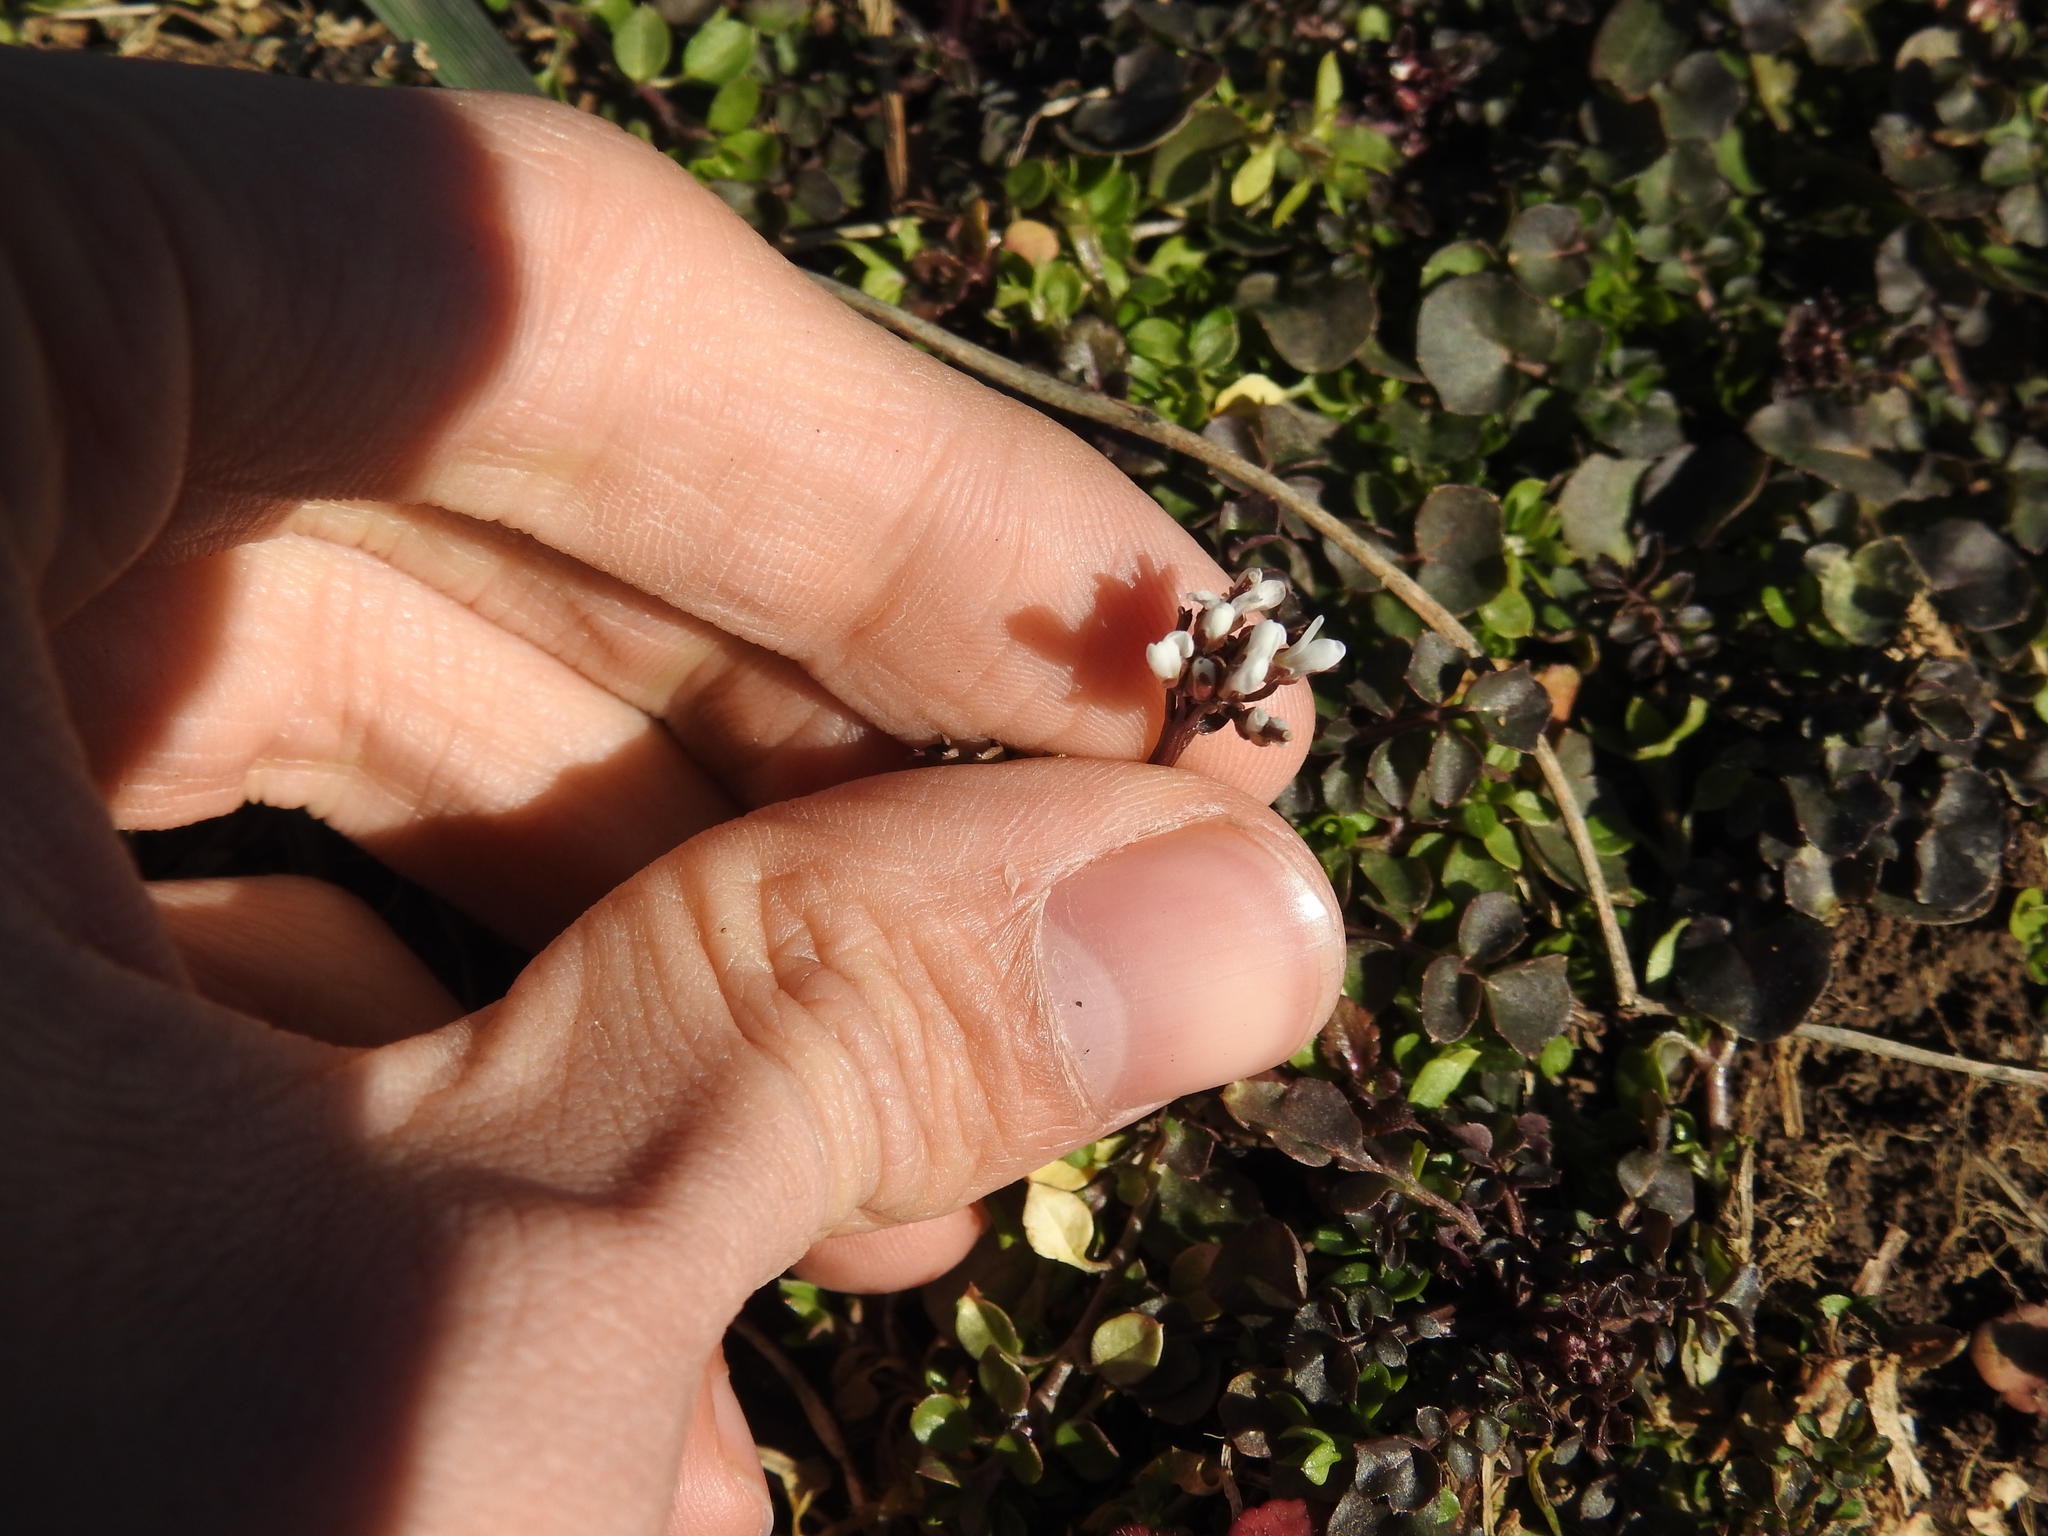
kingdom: Plantae
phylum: Tracheophyta
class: Magnoliopsida
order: Brassicales
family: Brassicaceae
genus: Cardamine
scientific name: Cardamine hirsuta
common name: Hairy bittercress
